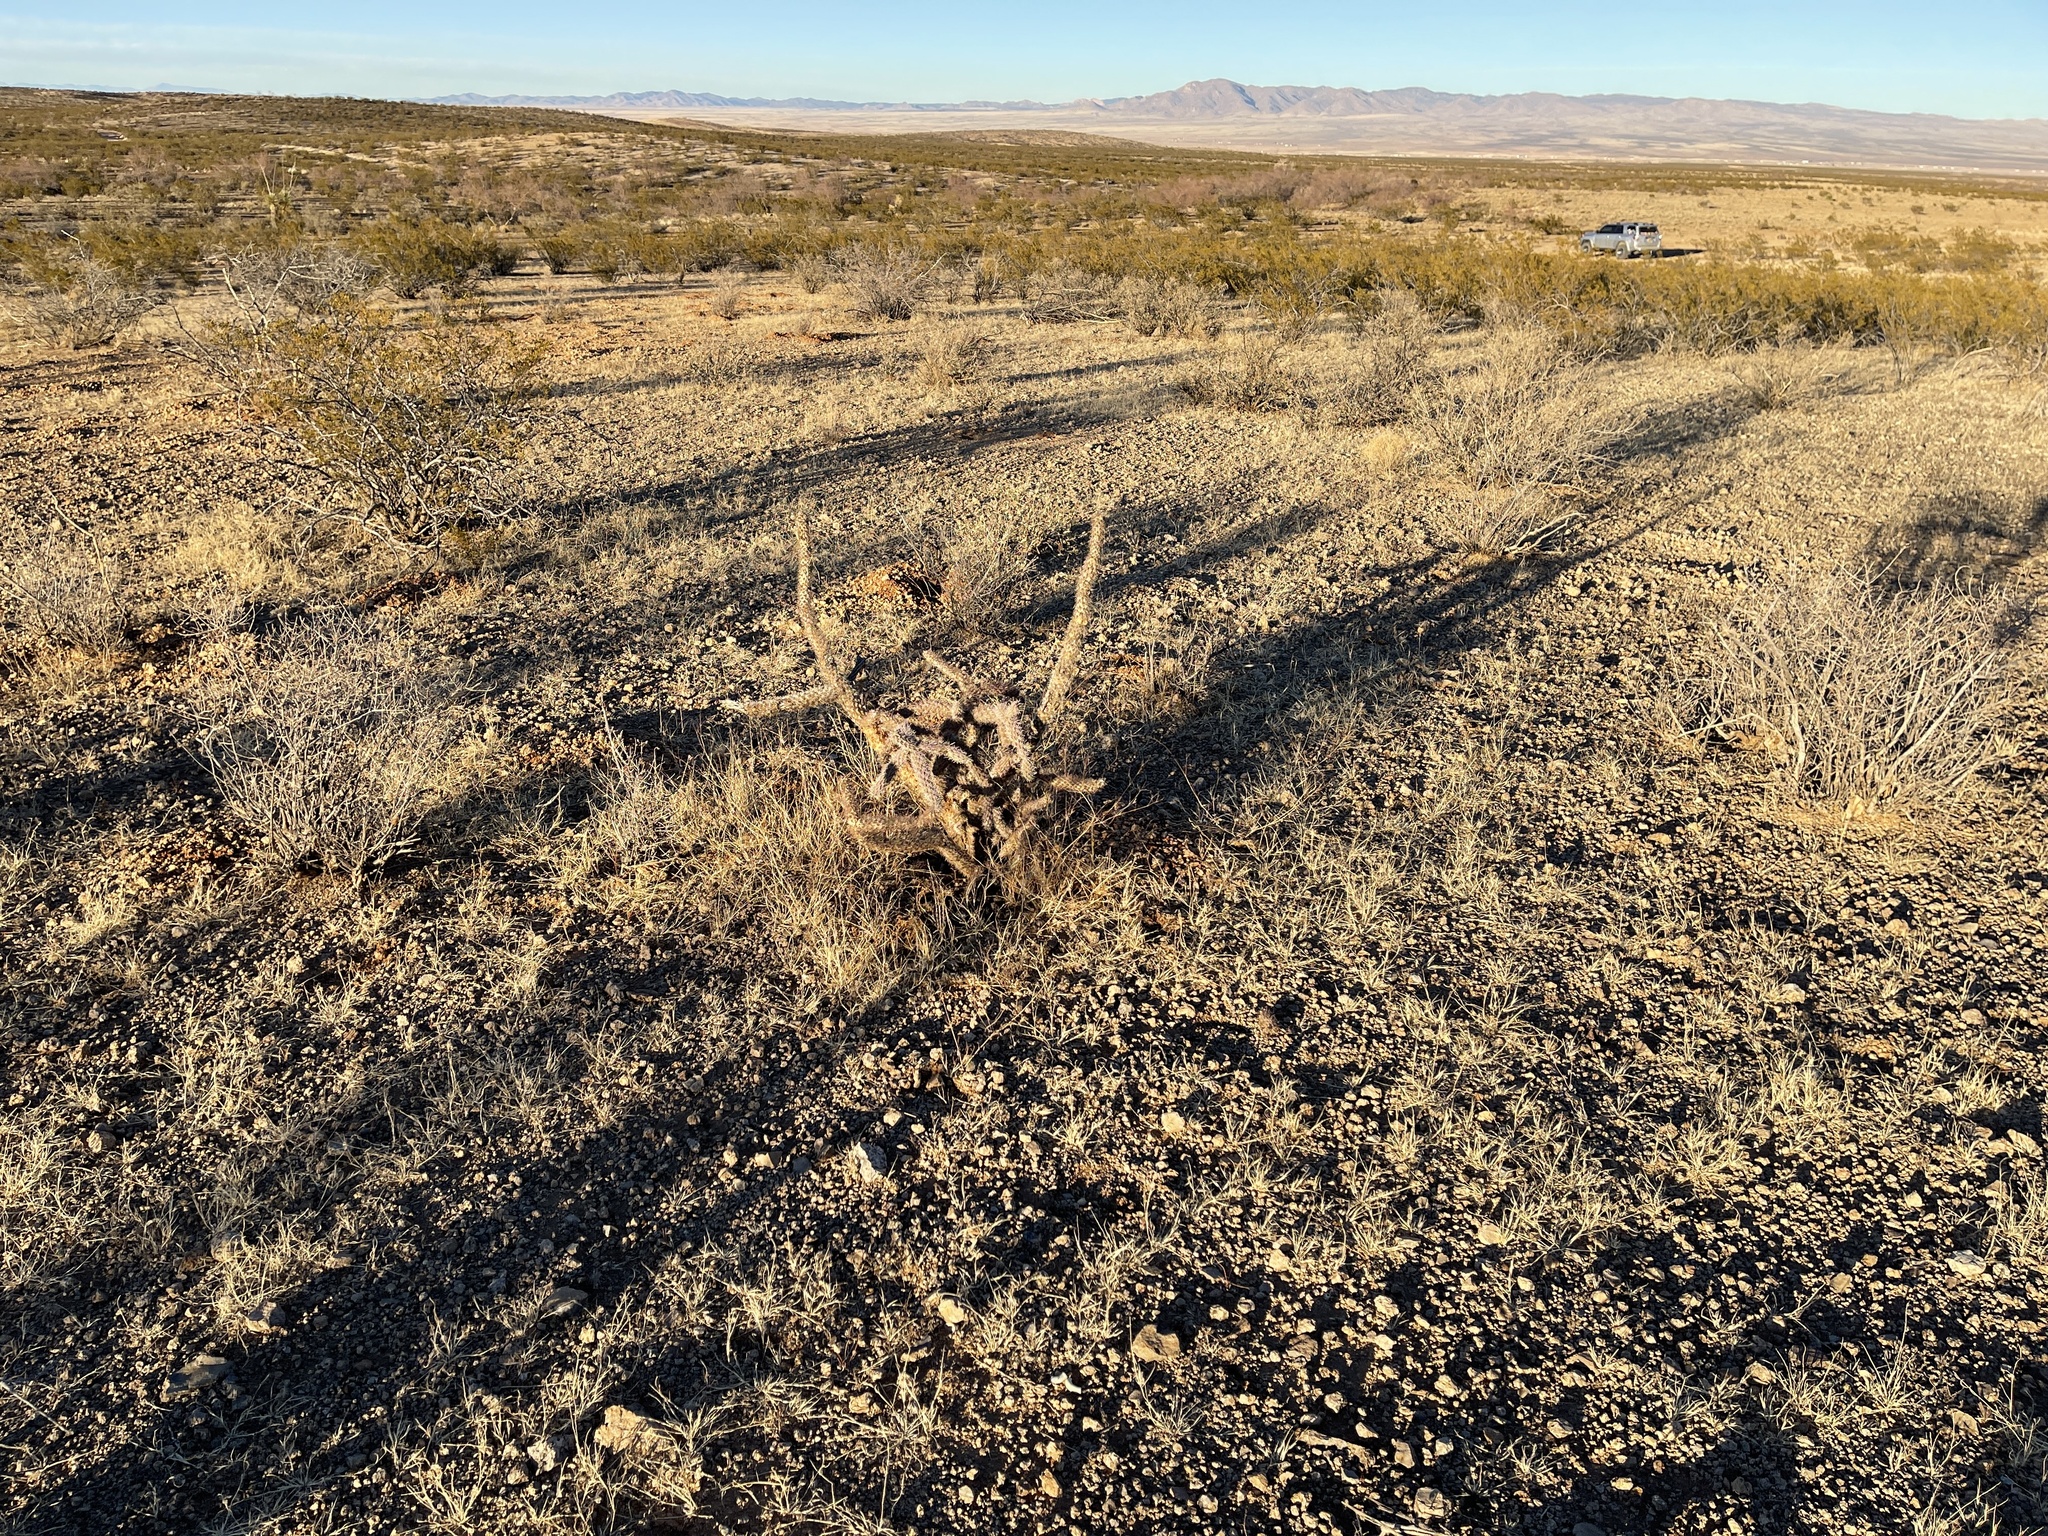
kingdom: Plantae
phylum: Tracheophyta
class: Magnoliopsida
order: Caryophyllales
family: Cactaceae
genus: Cylindropuntia
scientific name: Cylindropuntia imbricata
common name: Candelabrum cactus
